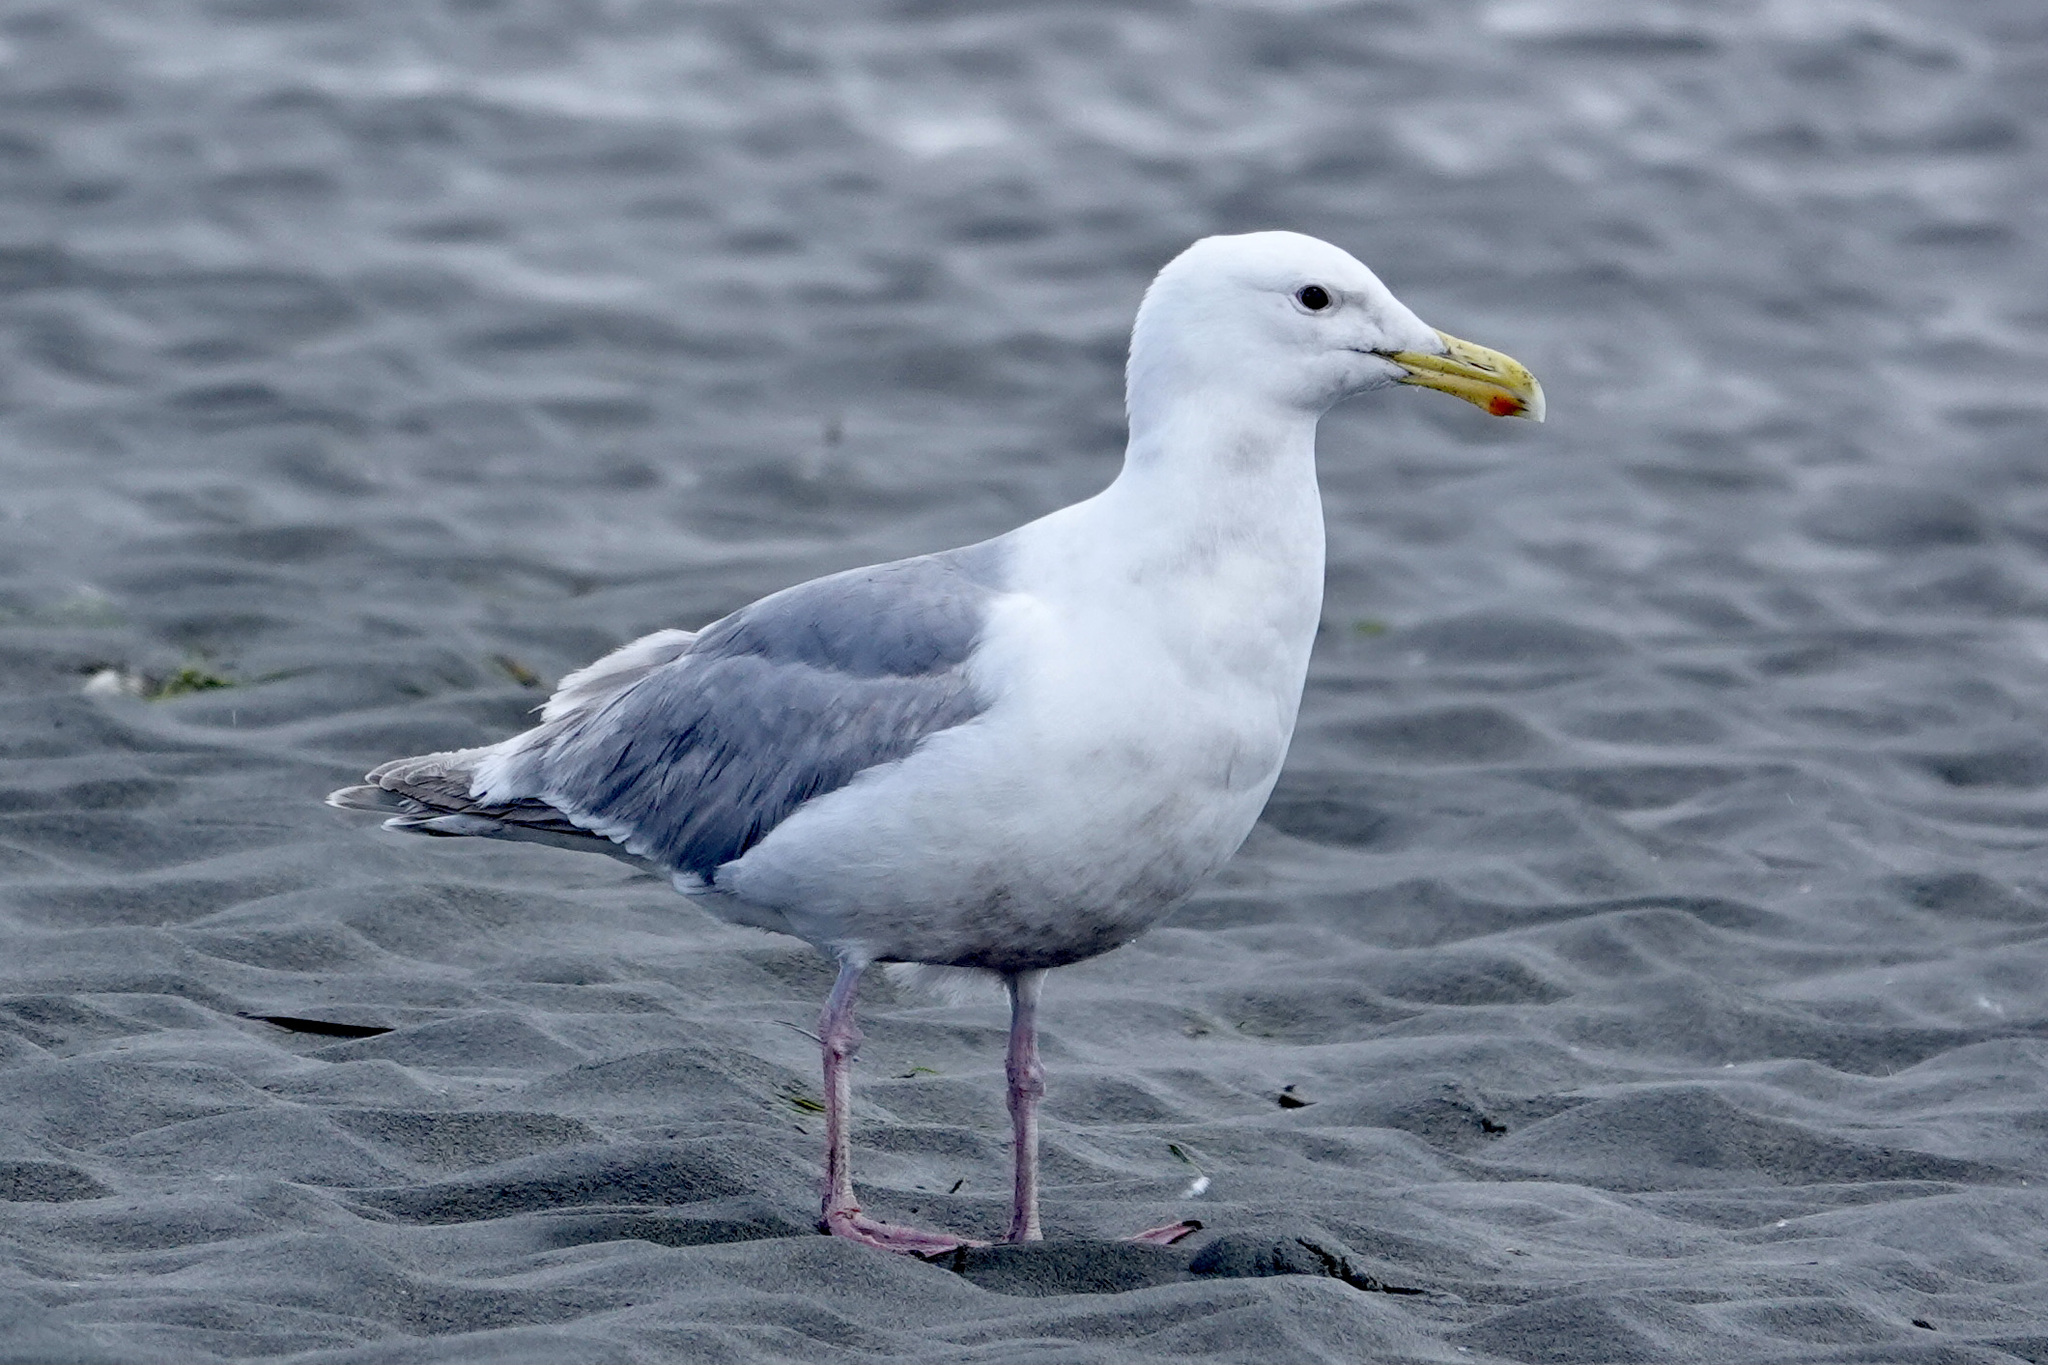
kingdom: Animalia
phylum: Chordata
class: Aves
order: Charadriiformes
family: Laridae
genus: Larus
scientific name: Larus
